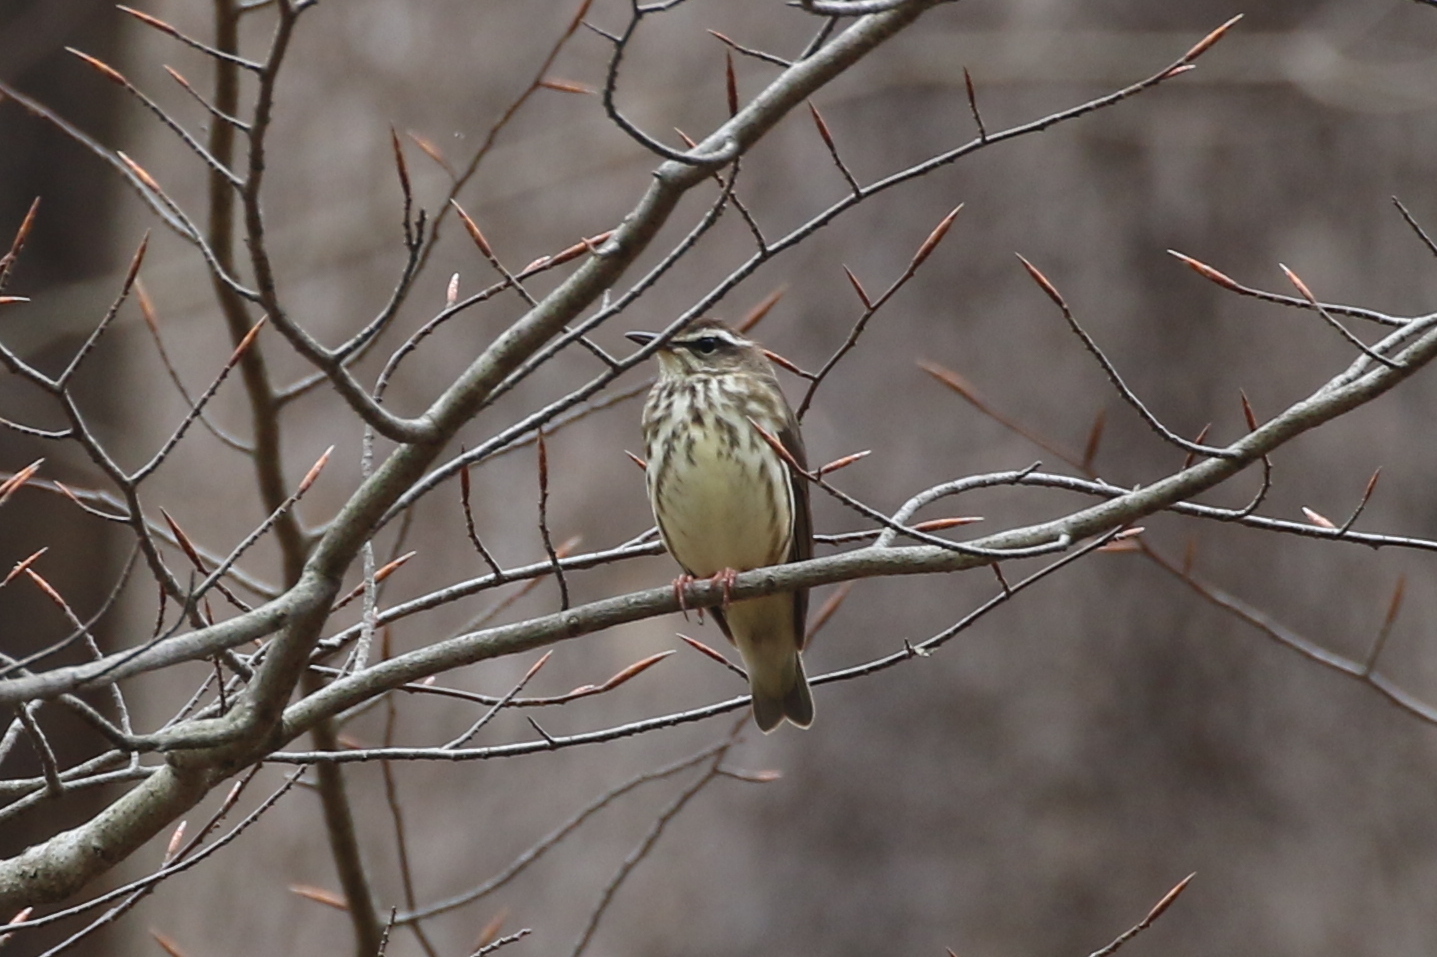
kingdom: Animalia
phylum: Chordata
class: Aves
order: Passeriformes
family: Parulidae
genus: Parkesia
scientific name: Parkesia motacilla
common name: Louisiana waterthrush
